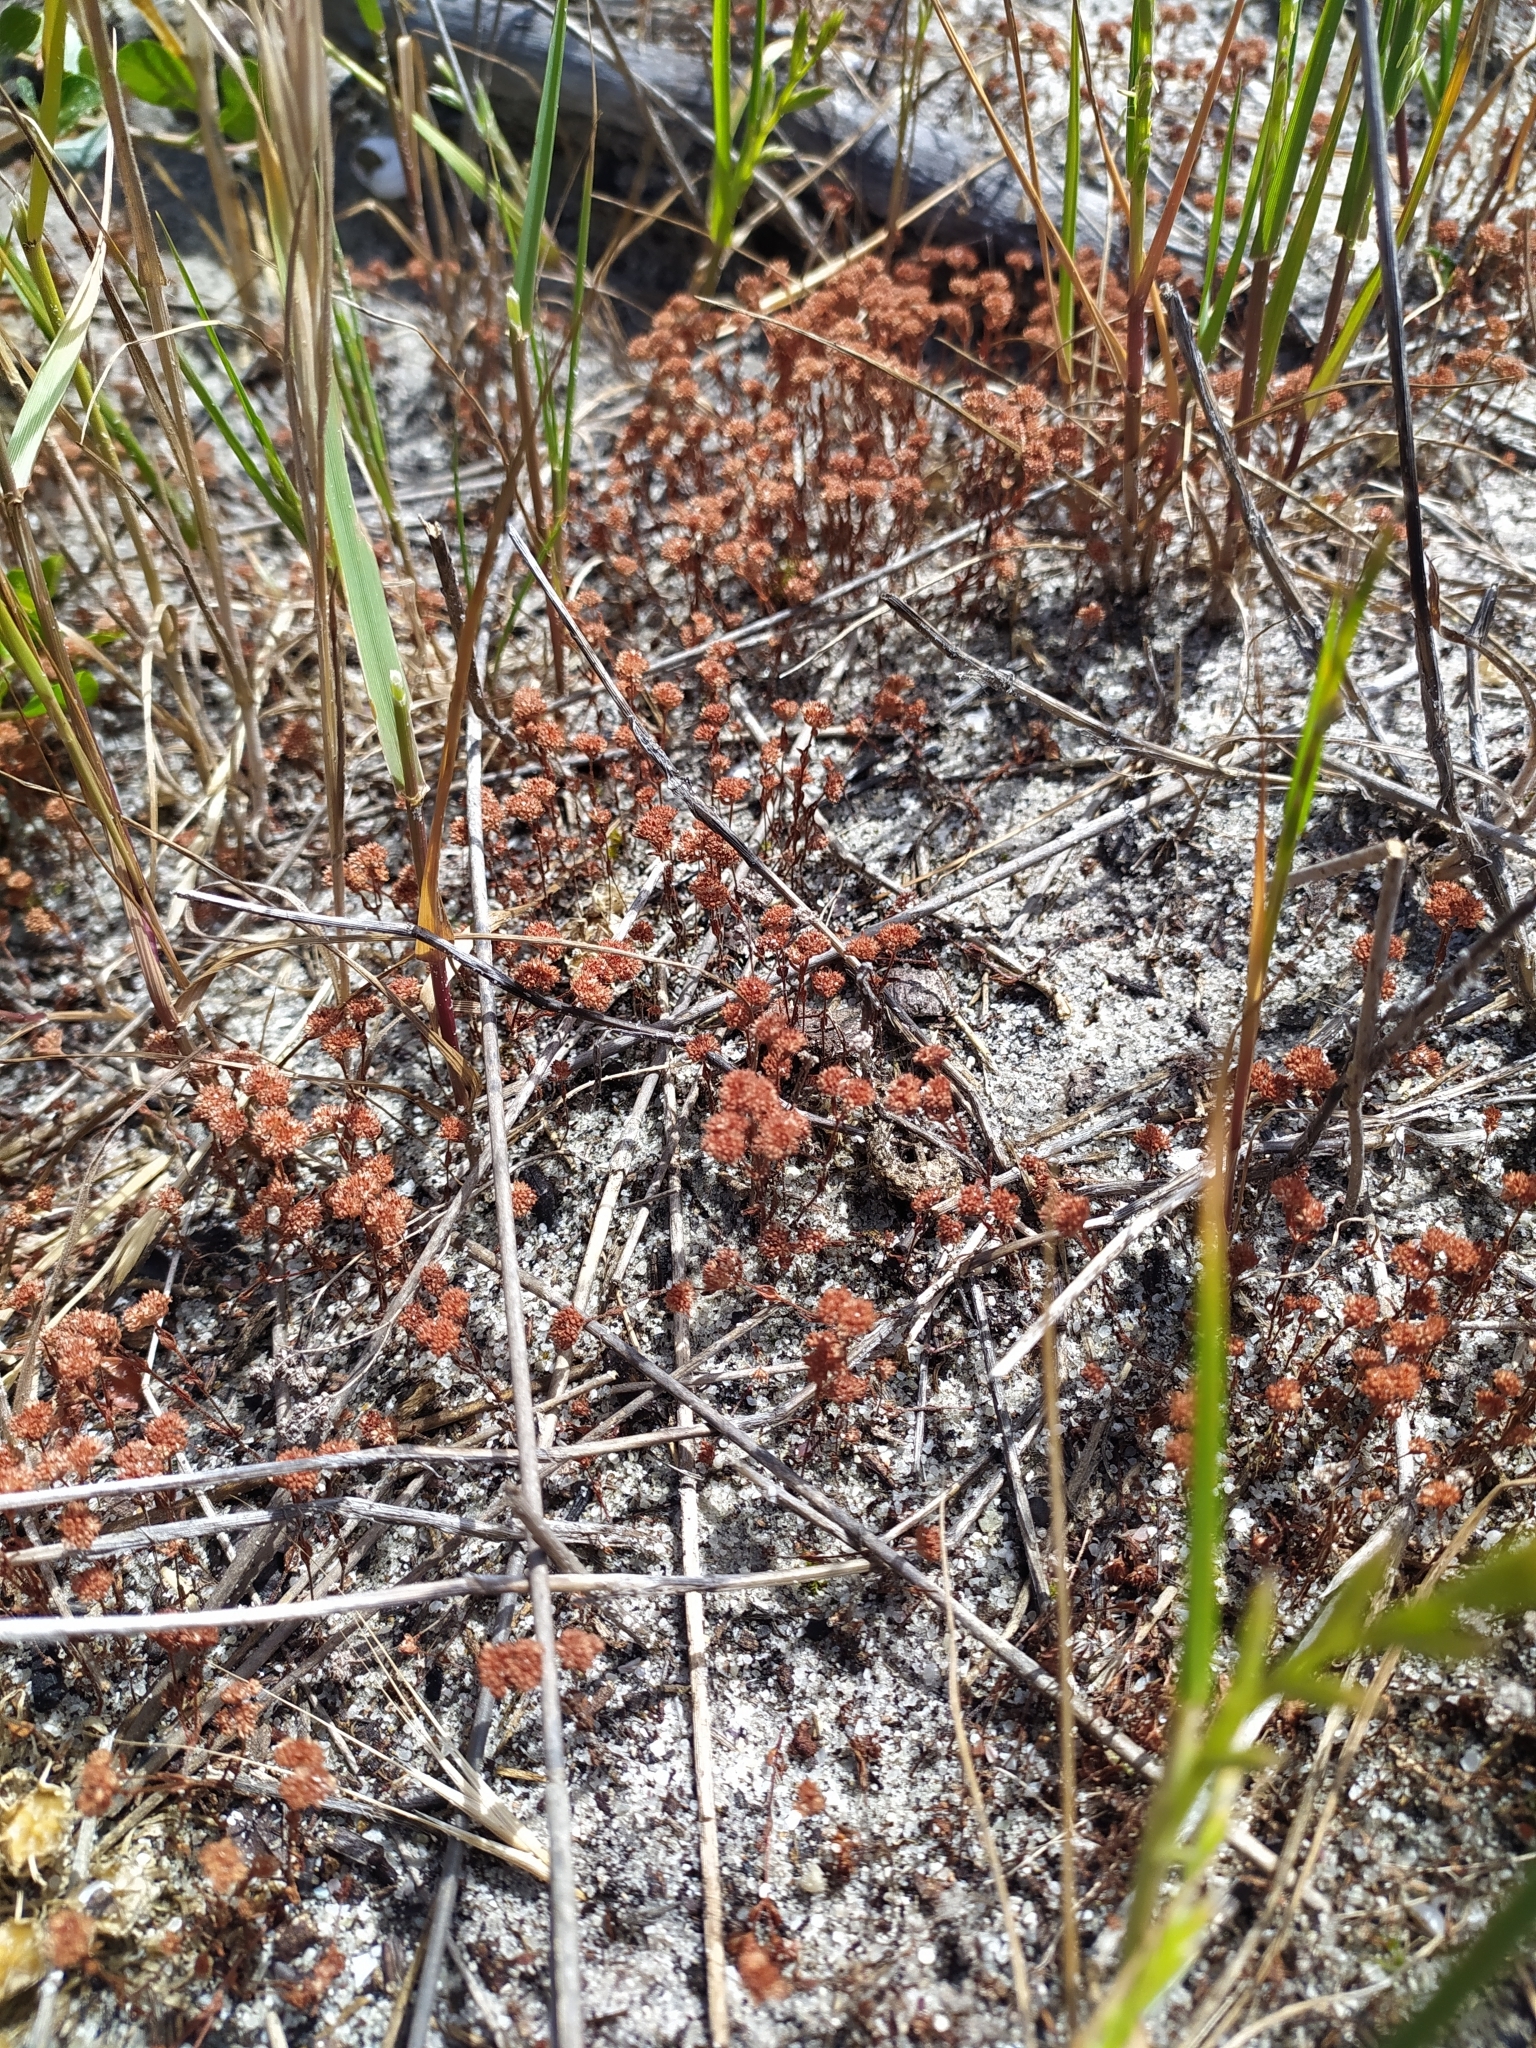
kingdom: Plantae
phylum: Tracheophyta
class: Magnoliopsida
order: Saxifragales
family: Crassulaceae
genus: Crassula
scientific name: Crassula
